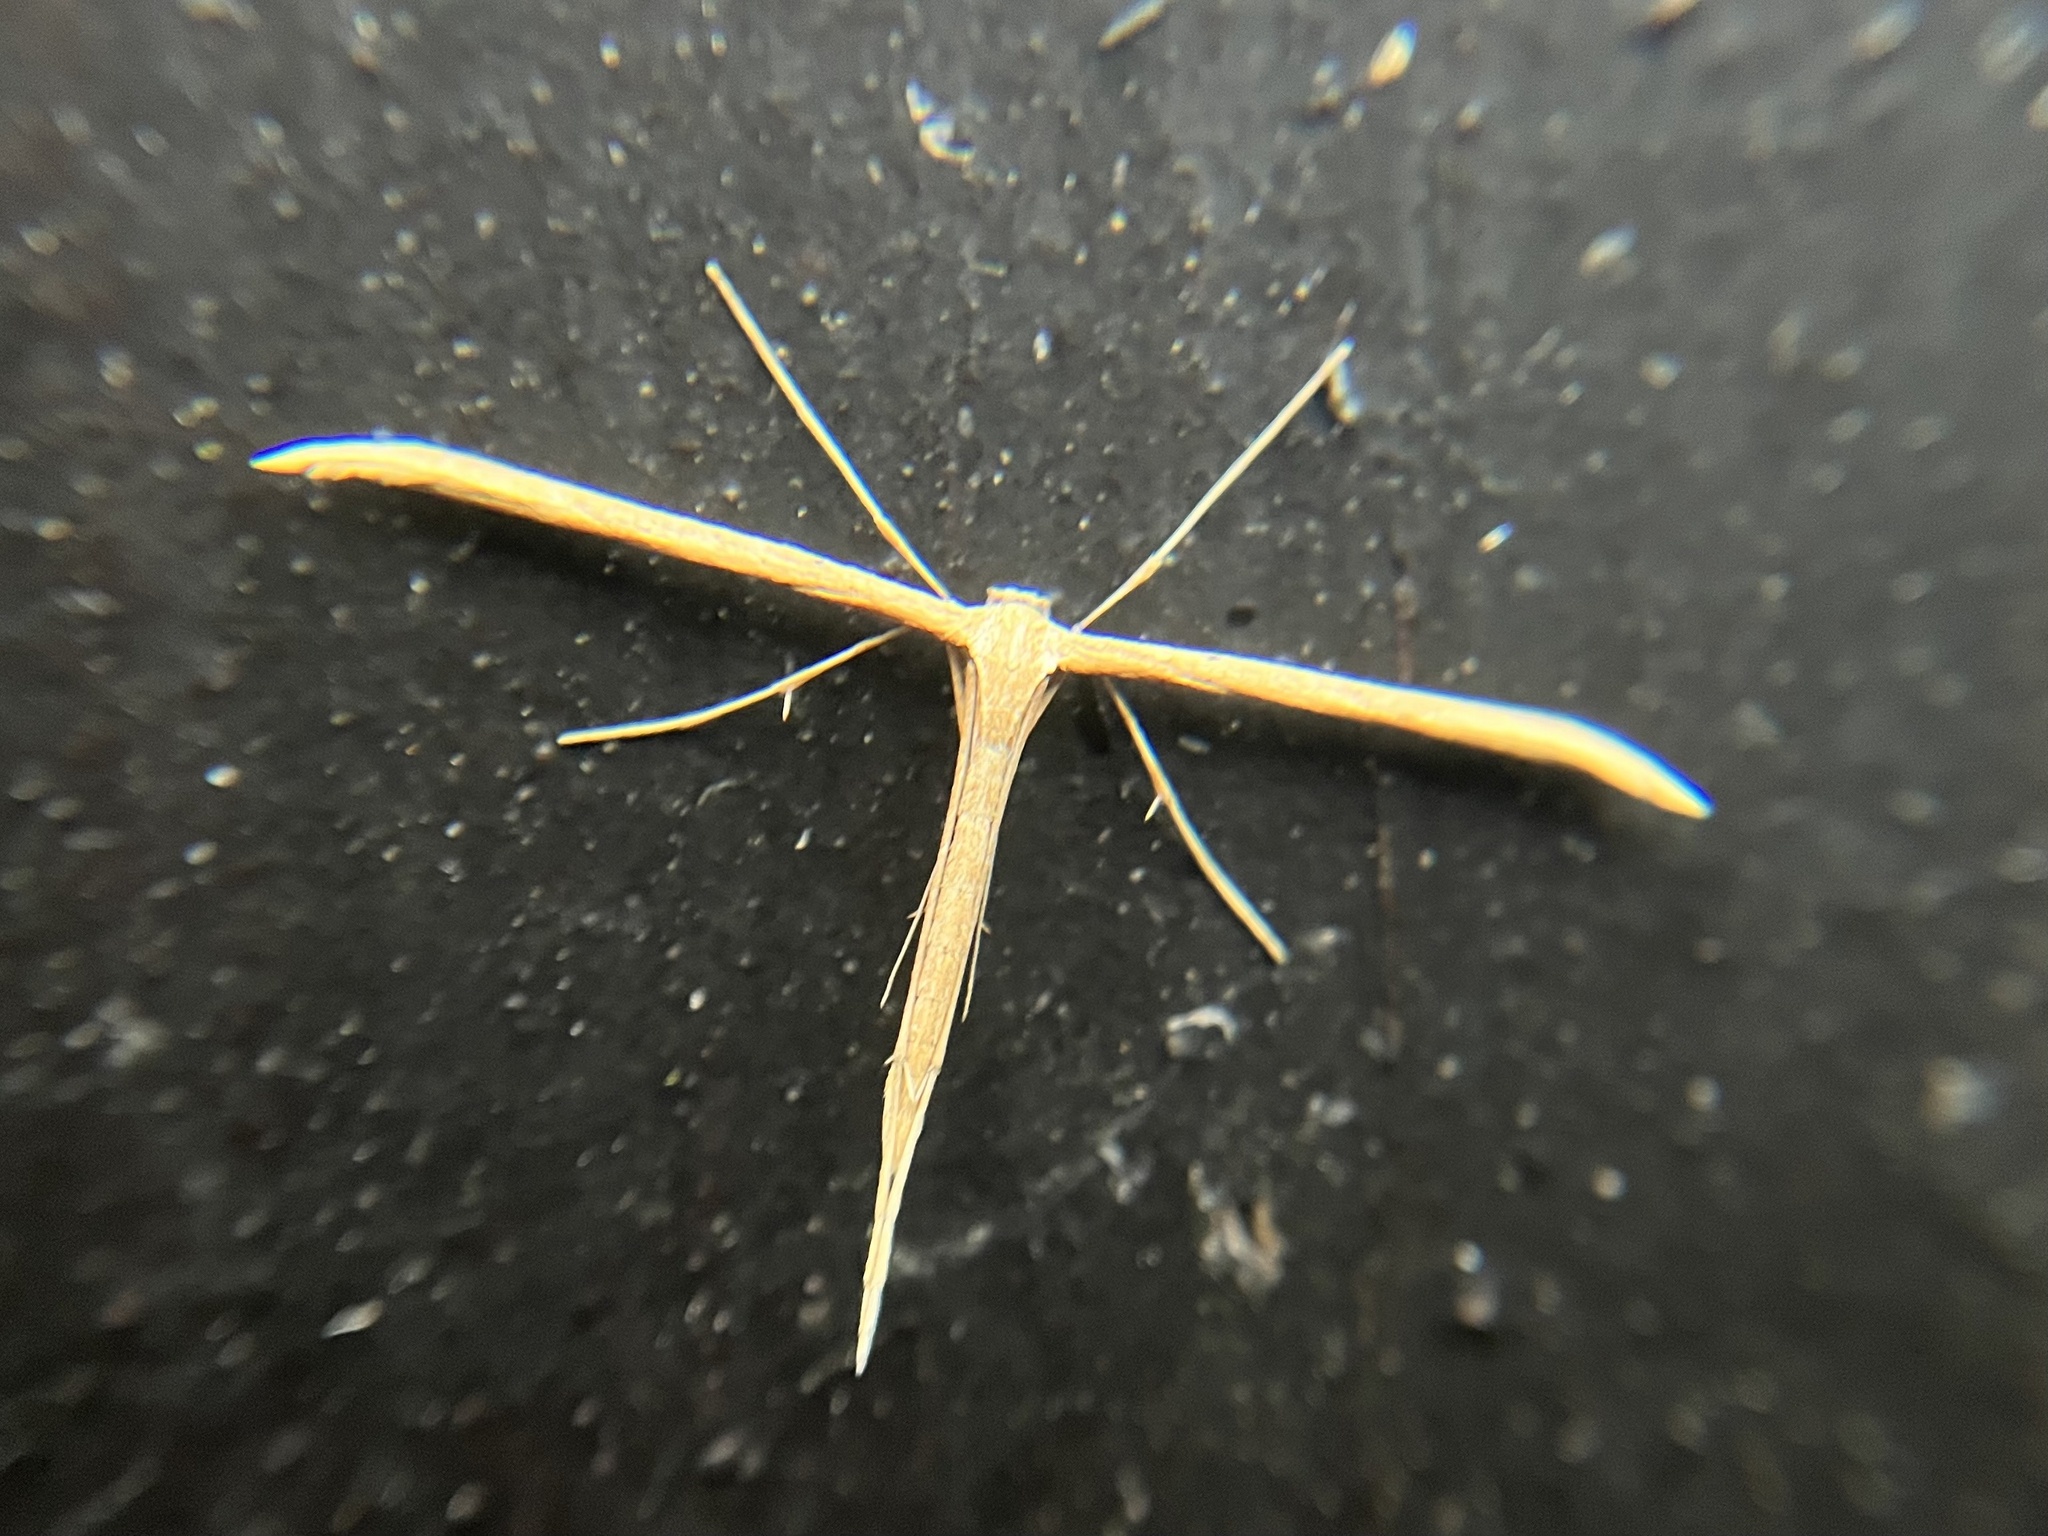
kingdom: Animalia
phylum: Arthropoda
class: Insecta
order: Lepidoptera
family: Pterophoridae
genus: Emmelina
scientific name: Emmelina monodactyla
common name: Common plume
